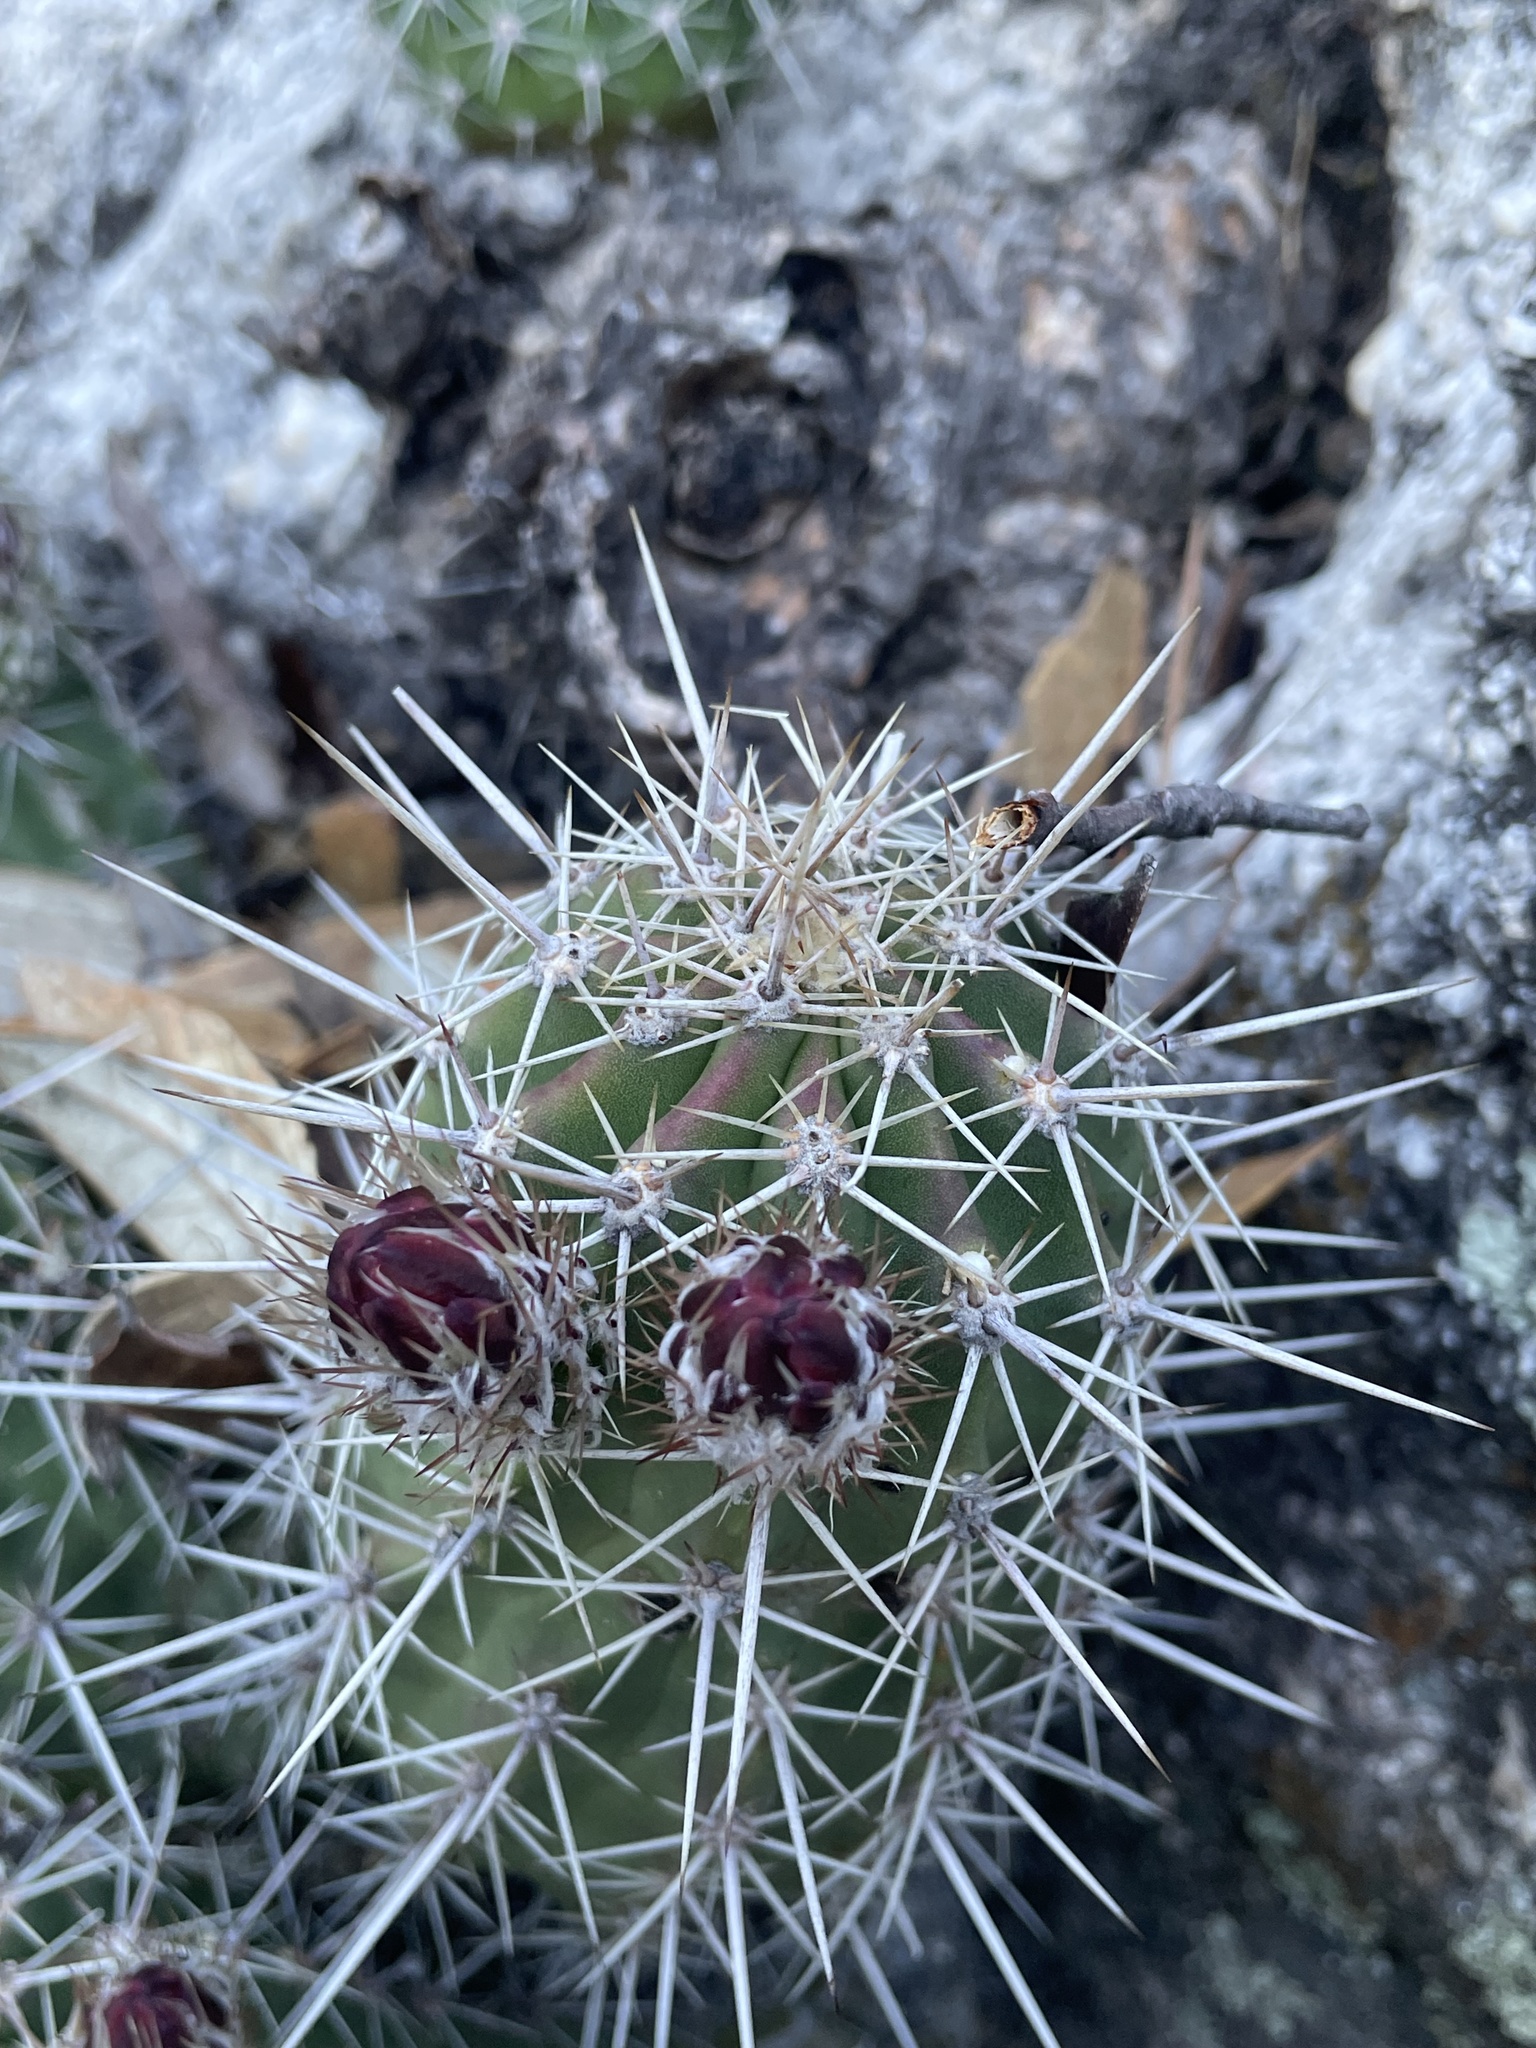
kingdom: Plantae
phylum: Tracheophyta
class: Magnoliopsida
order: Caryophyllales
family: Cactaceae
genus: Echinocereus
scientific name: Echinocereus coccineus
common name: Scarlet hedgehog cactus
